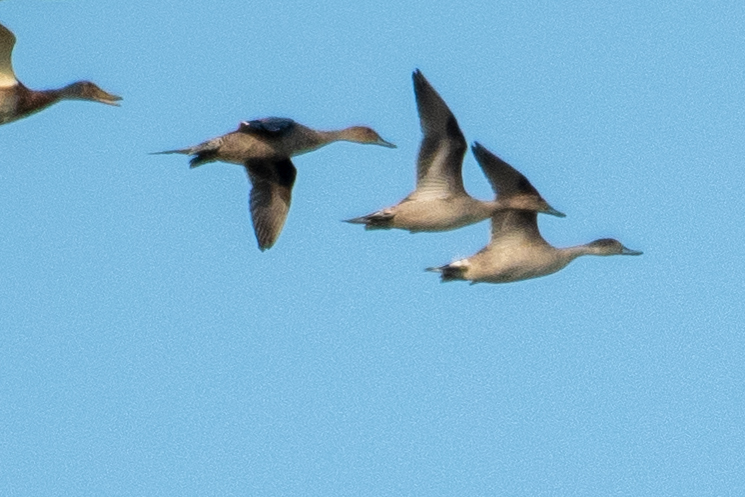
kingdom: Animalia
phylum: Chordata
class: Aves
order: Anseriformes
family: Anatidae
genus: Anas
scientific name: Anas acuta
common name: Northern pintail
